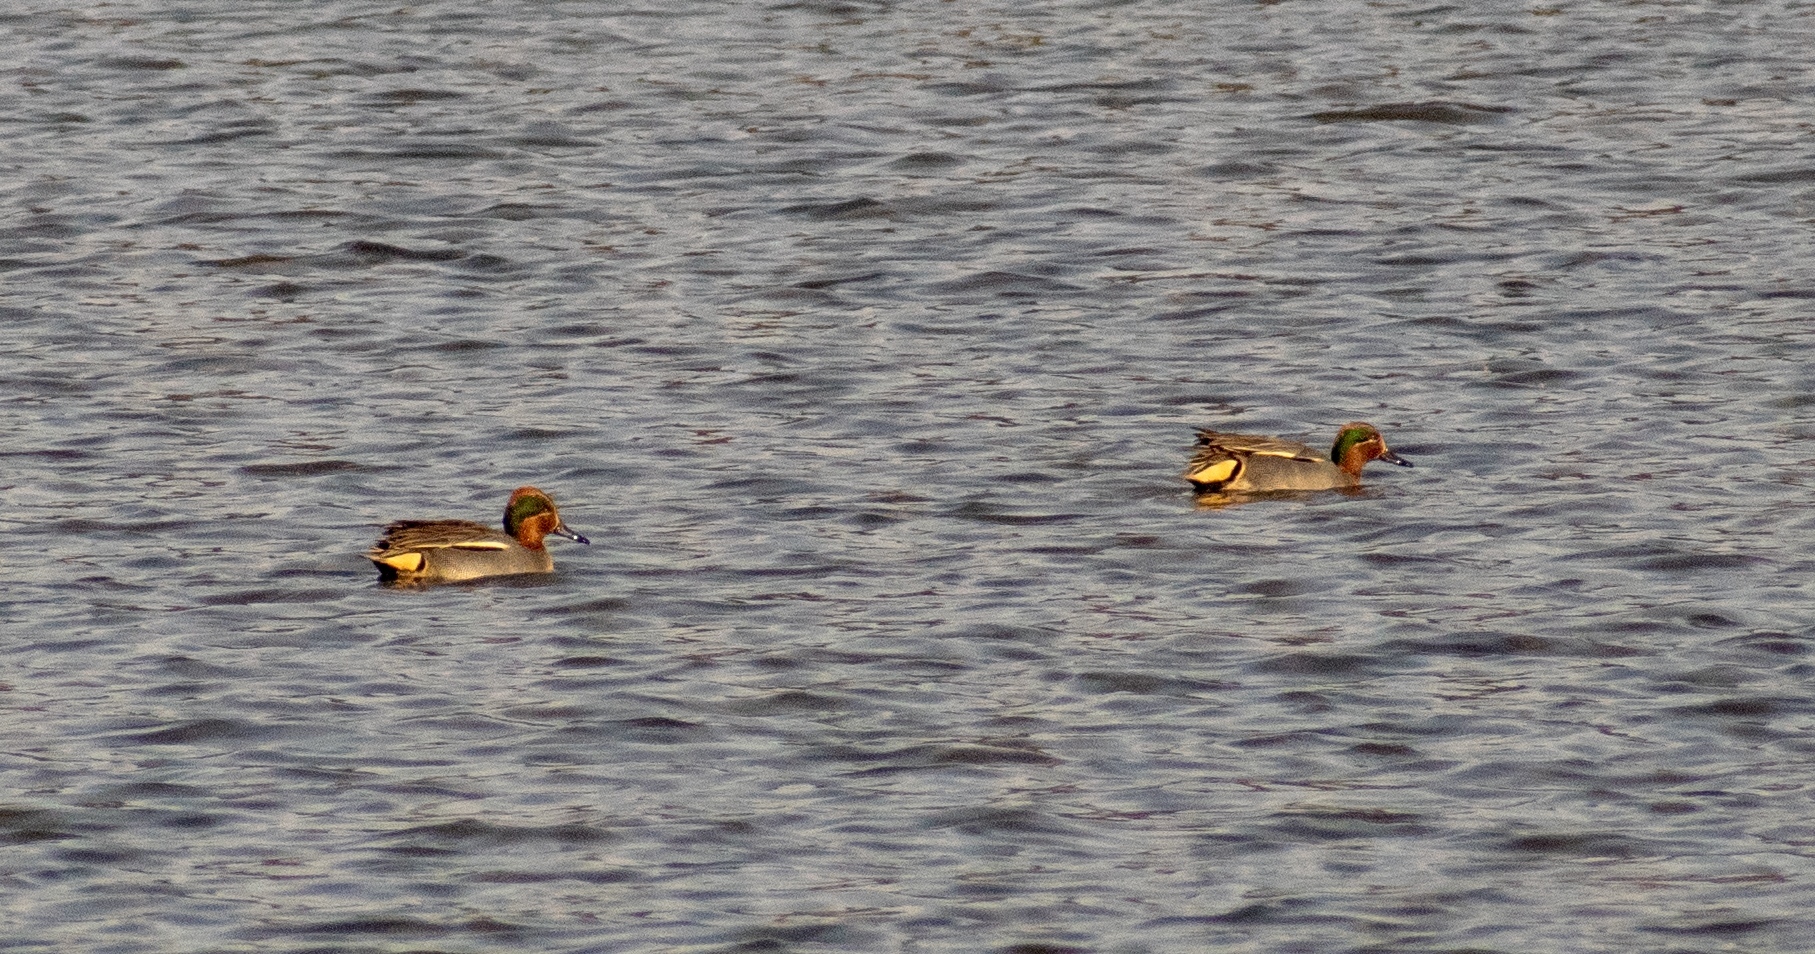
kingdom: Animalia
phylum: Chordata
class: Aves
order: Anseriformes
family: Anatidae
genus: Anas
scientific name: Anas crecca
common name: Eurasian teal
